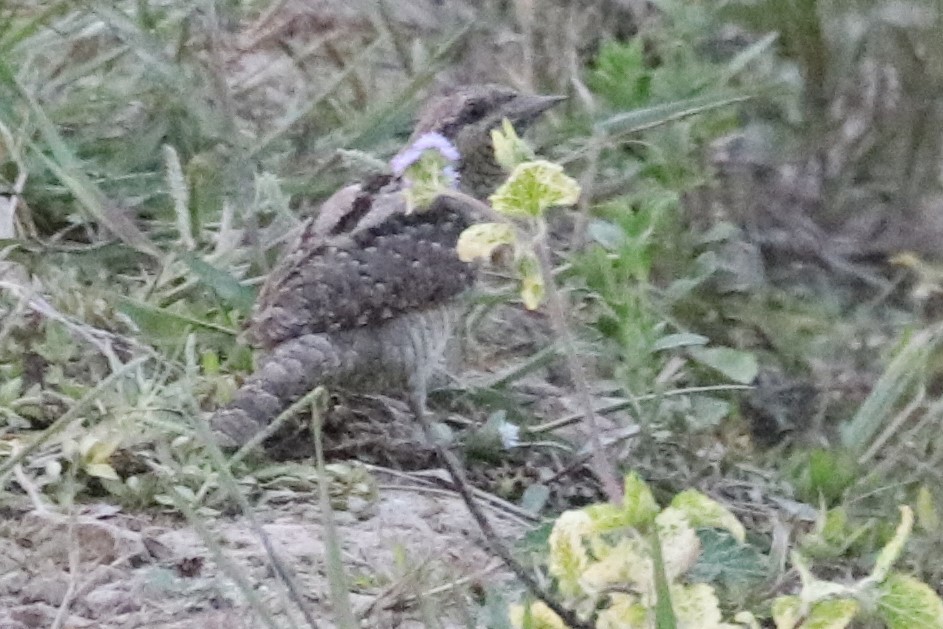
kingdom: Animalia
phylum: Chordata
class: Aves
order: Piciformes
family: Picidae
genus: Jynx
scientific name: Jynx torquilla
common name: Eurasian wryneck
